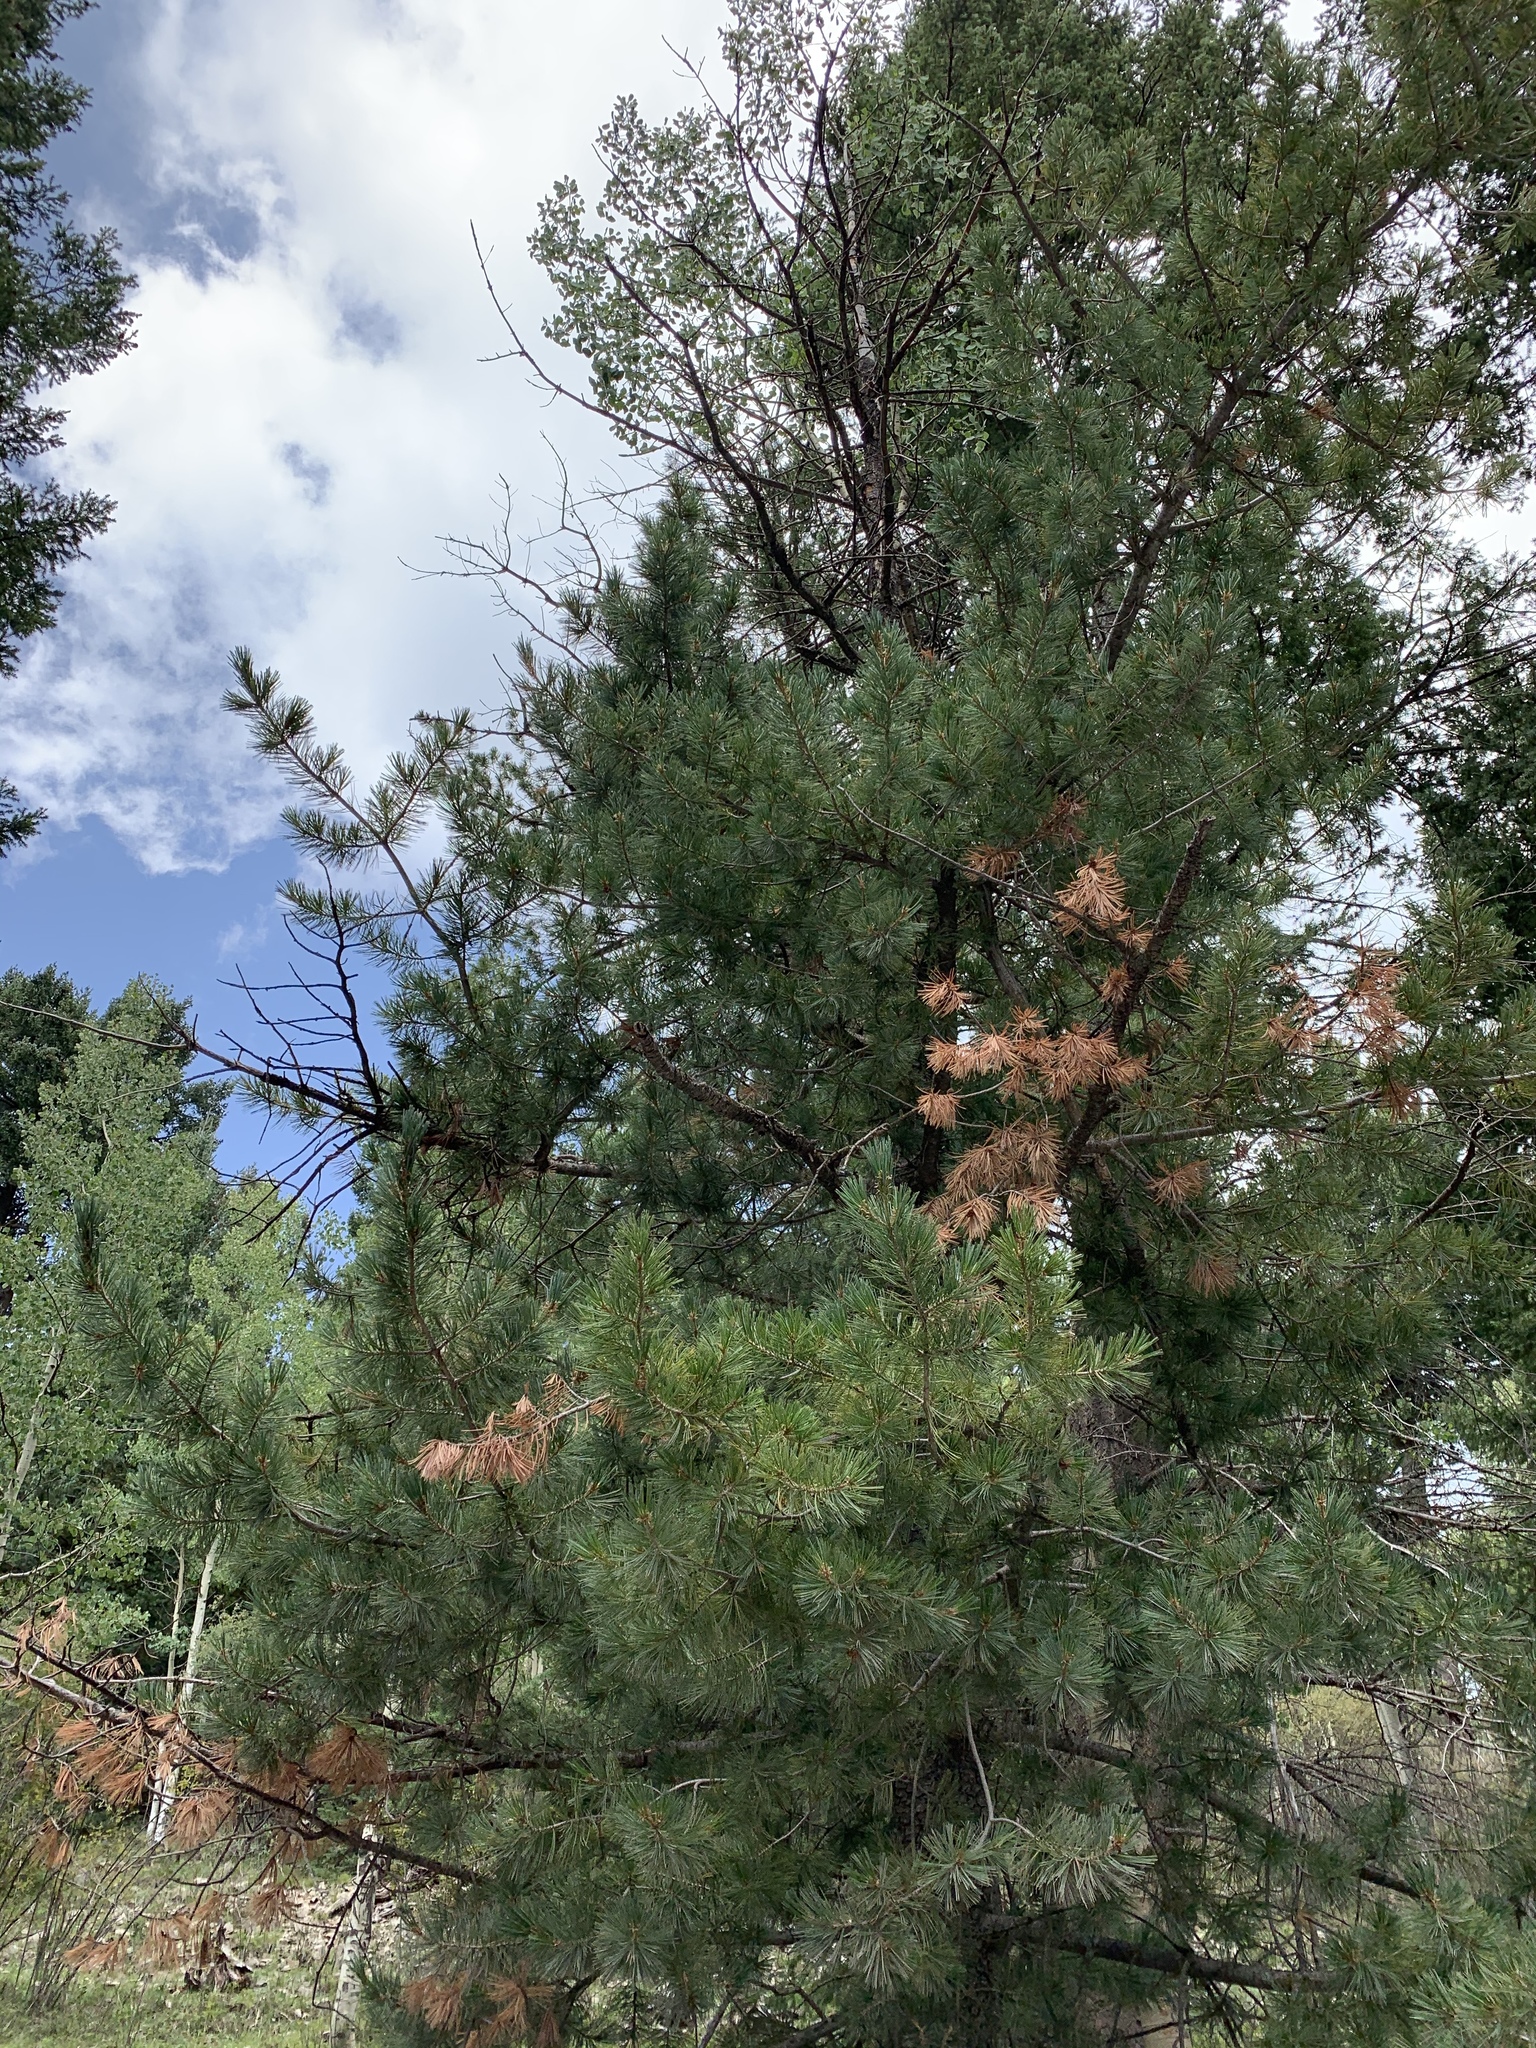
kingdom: Plantae
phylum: Tracheophyta
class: Pinopsida
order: Pinales
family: Pinaceae
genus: Pinus
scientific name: Pinus strobiformis
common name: Southwestern white pine
